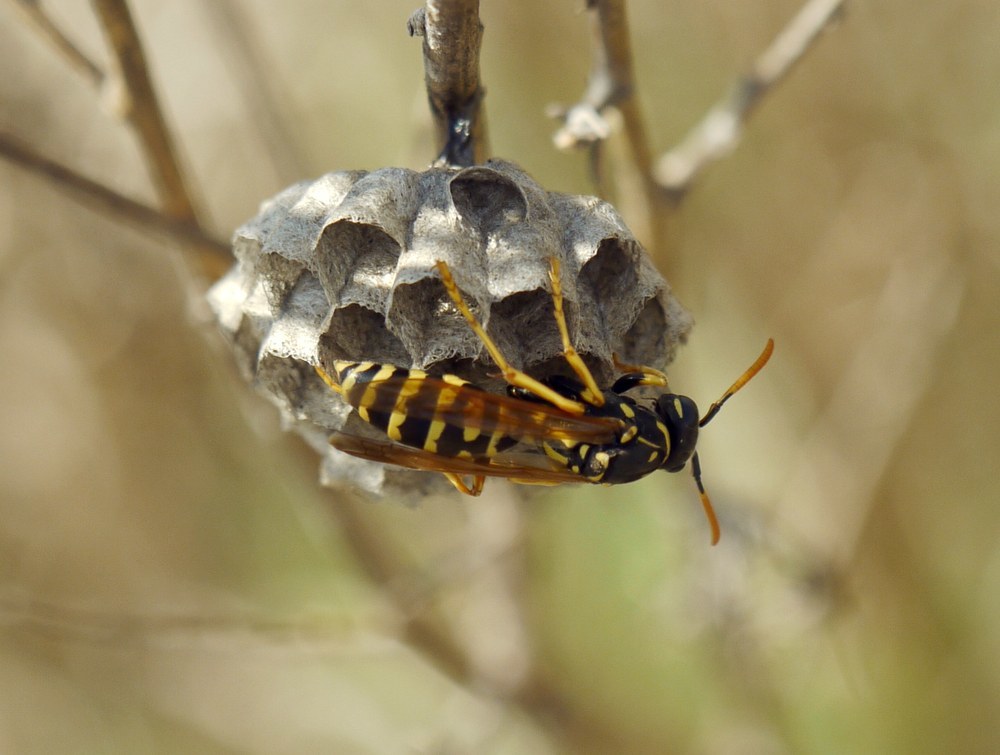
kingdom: Animalia
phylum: Arthropoda
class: Insecta
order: Hymenoptera
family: Eumenidae
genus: Polistes
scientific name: Polistes dominula
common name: Paper wasp
